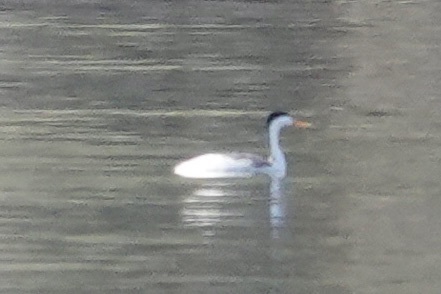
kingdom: Animalia
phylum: Chordata
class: Aves
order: Podicipediformes
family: Podicipedidae
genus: Aechmophorus
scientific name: Aechmophorus clarkii
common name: Clark's grebe
